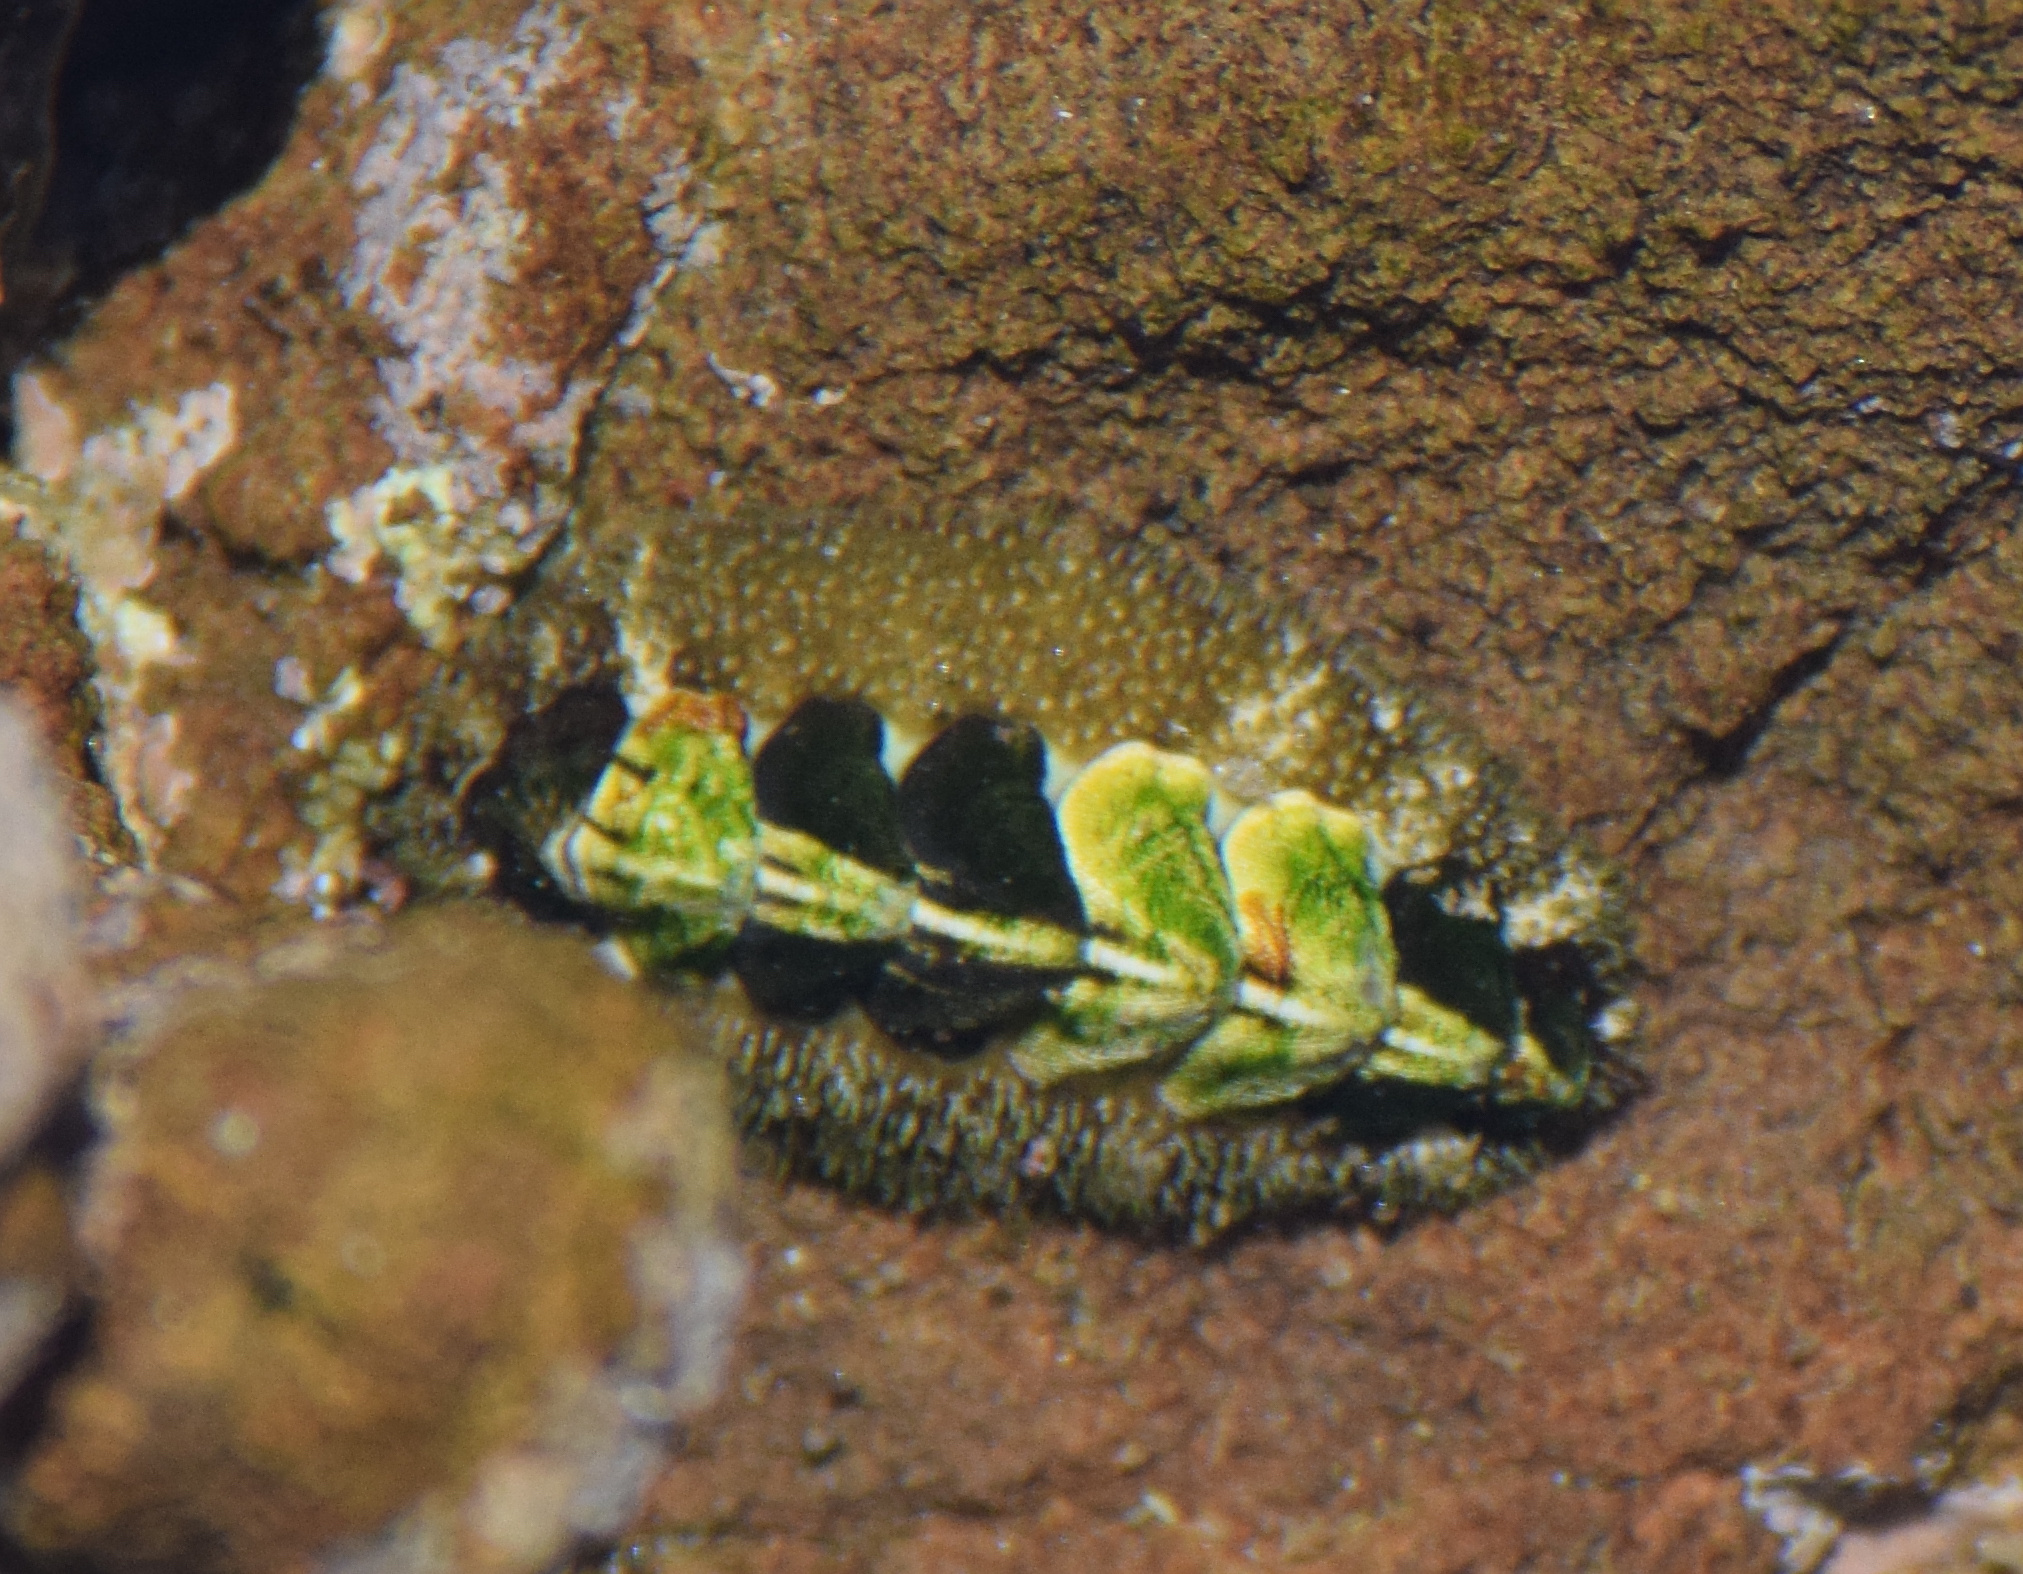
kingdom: Animalia
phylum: Mollusca
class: Polyplacophora
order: Chitonida
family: Tonicellidae
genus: Nuttallina
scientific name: Nuttallina californica
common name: California nuttall chiton
